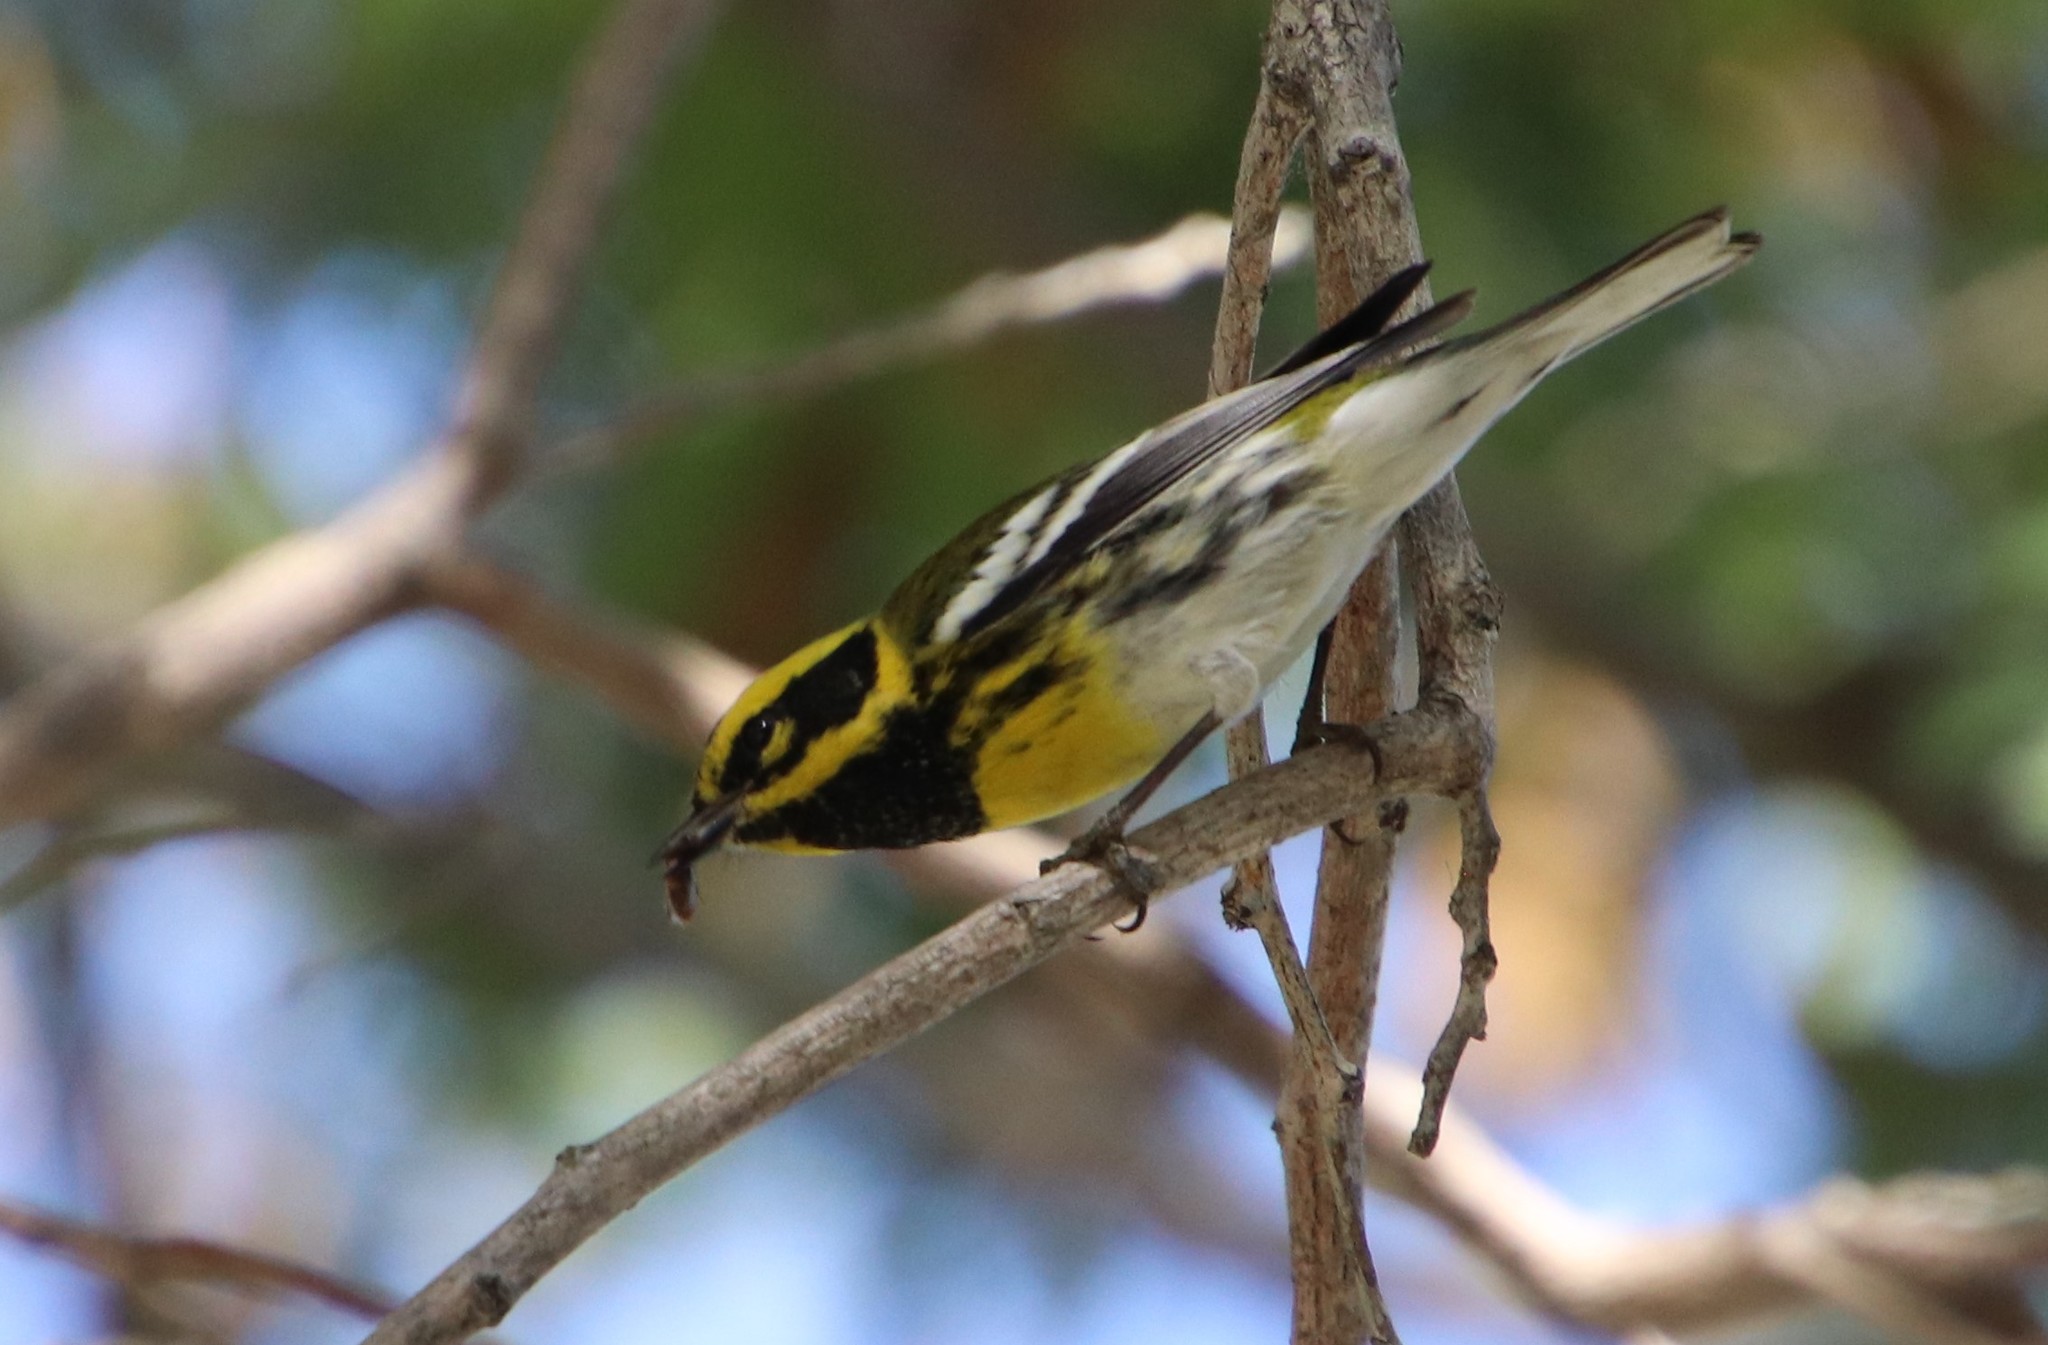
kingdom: Animalia
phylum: Chordata
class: Aves
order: Passeriformes
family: Parulidae
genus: Setophaga
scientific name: Setophaga townsendi
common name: Townsend's warbler
